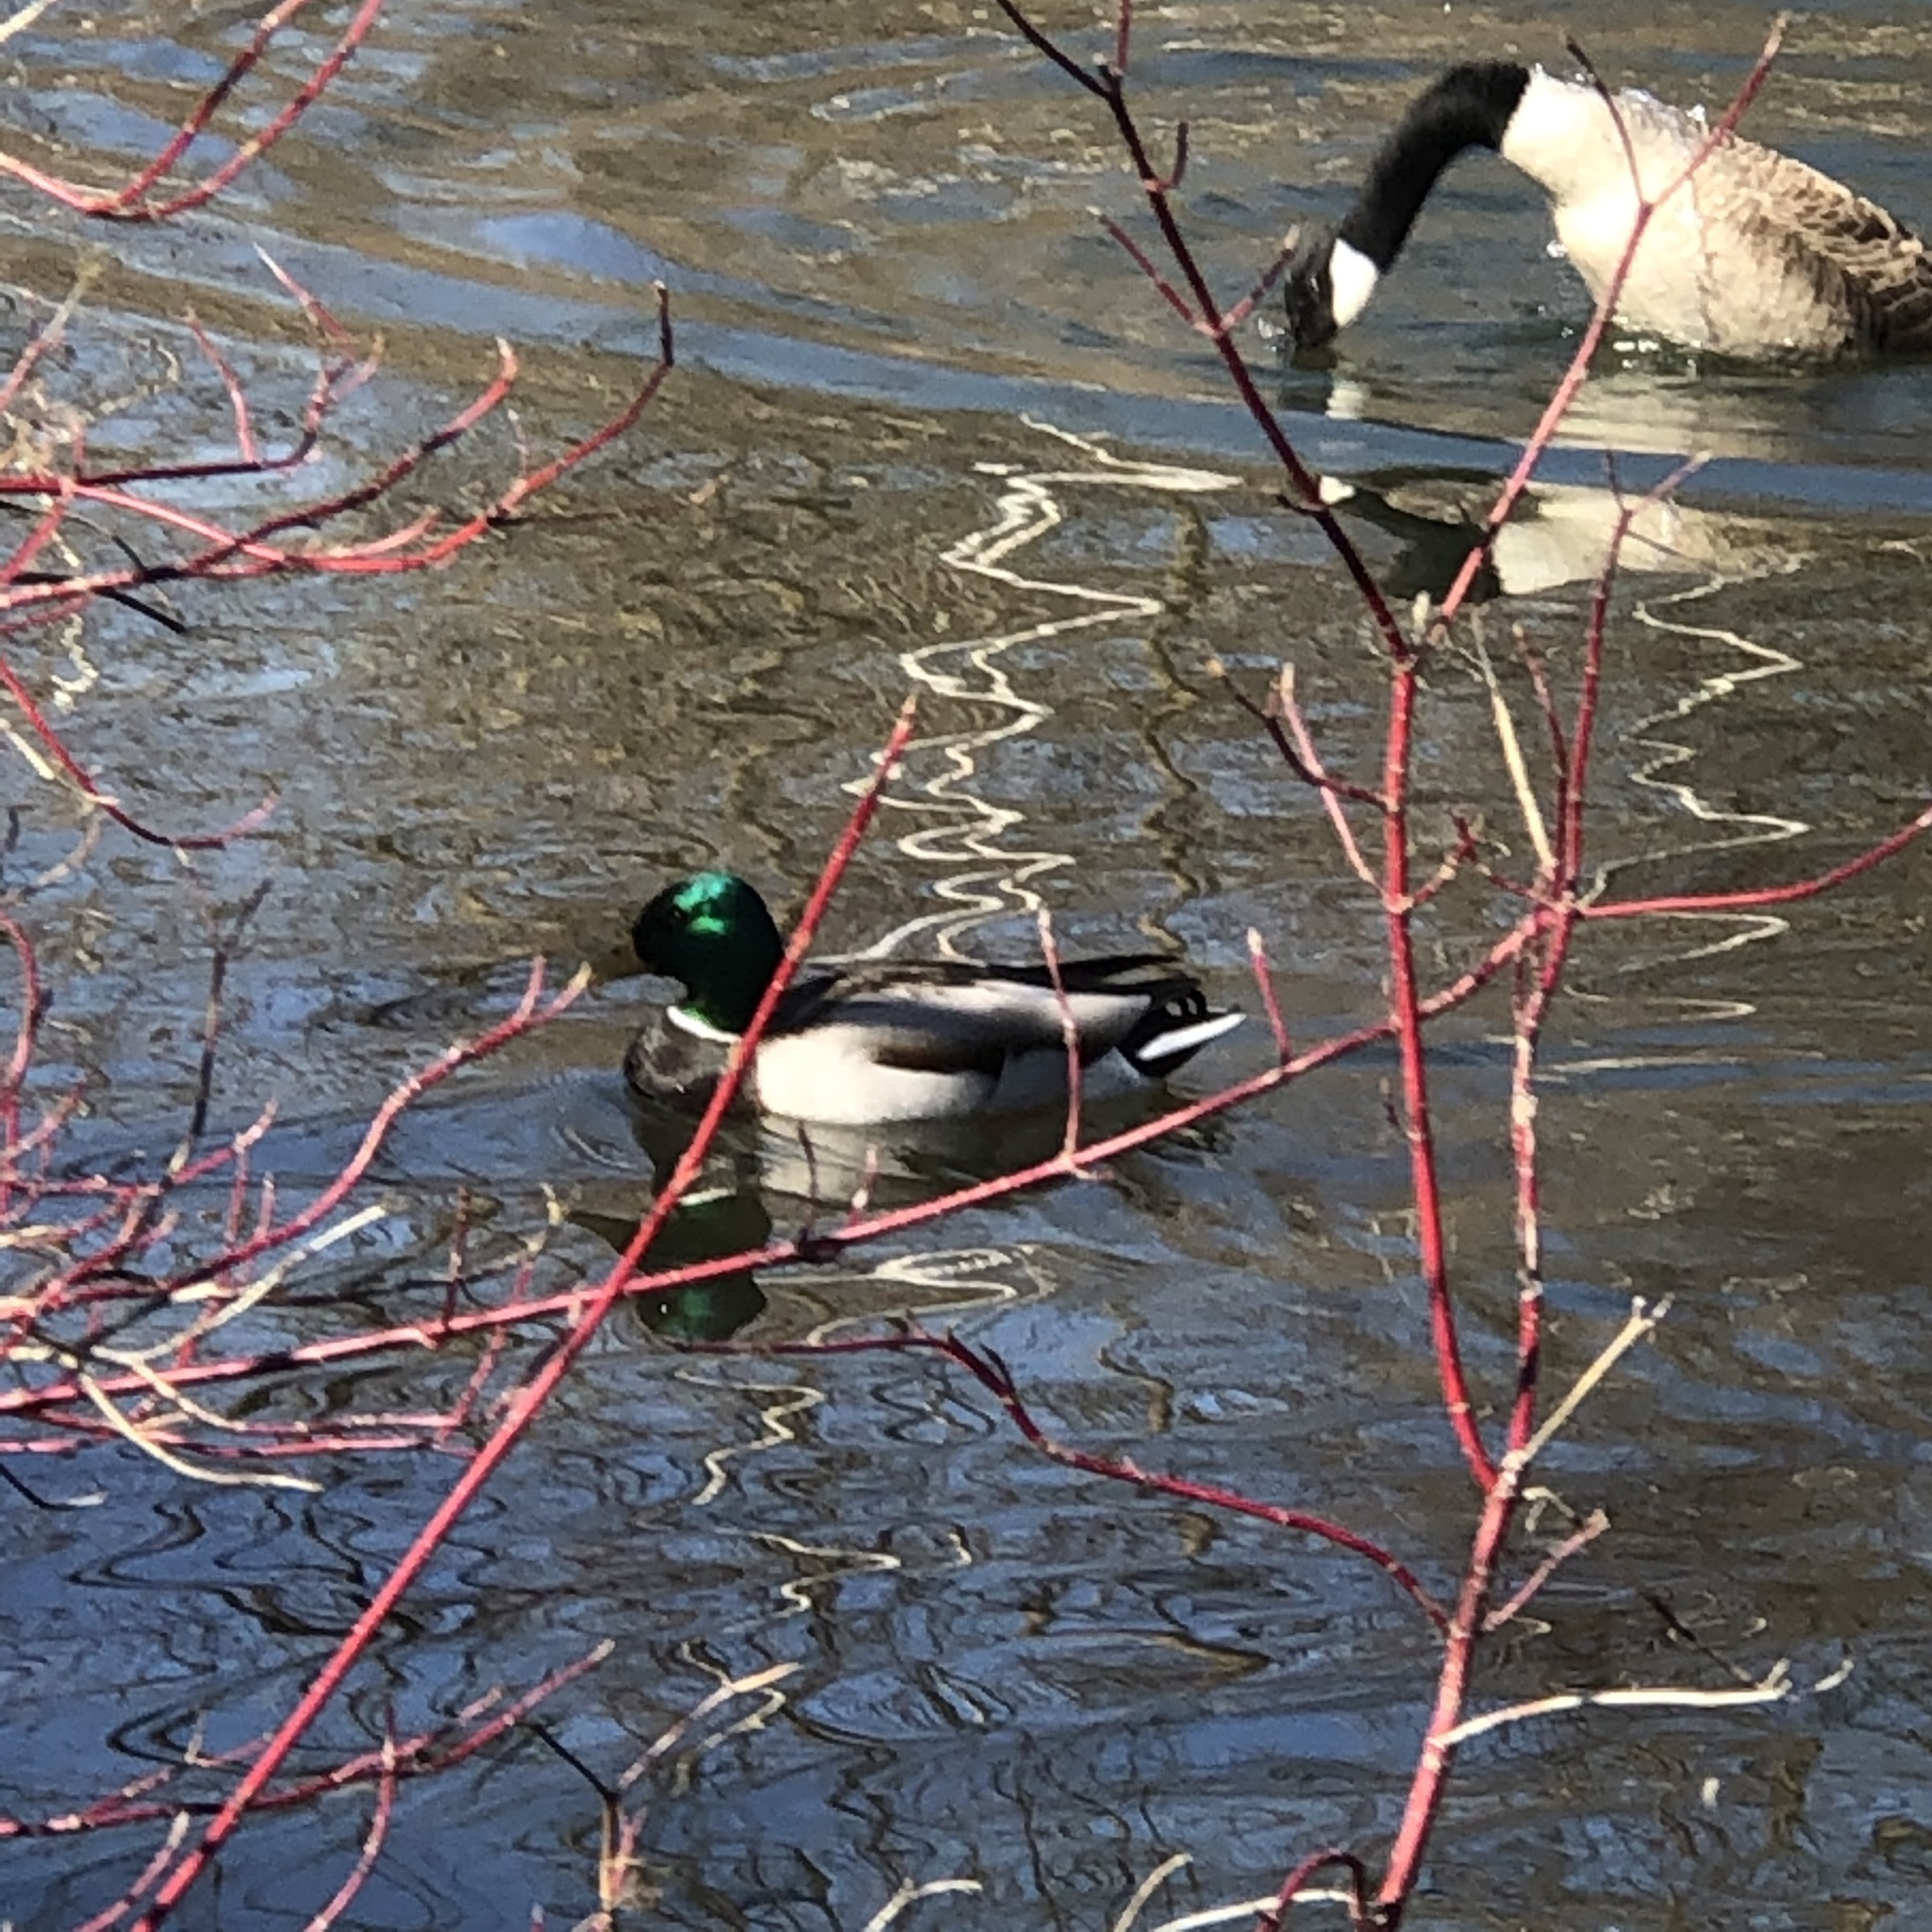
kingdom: Animalia
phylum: Chordata
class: Aves
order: Anseriformes
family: Anatidae
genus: Anas
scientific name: Anas platyrhynchos
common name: Mallard
